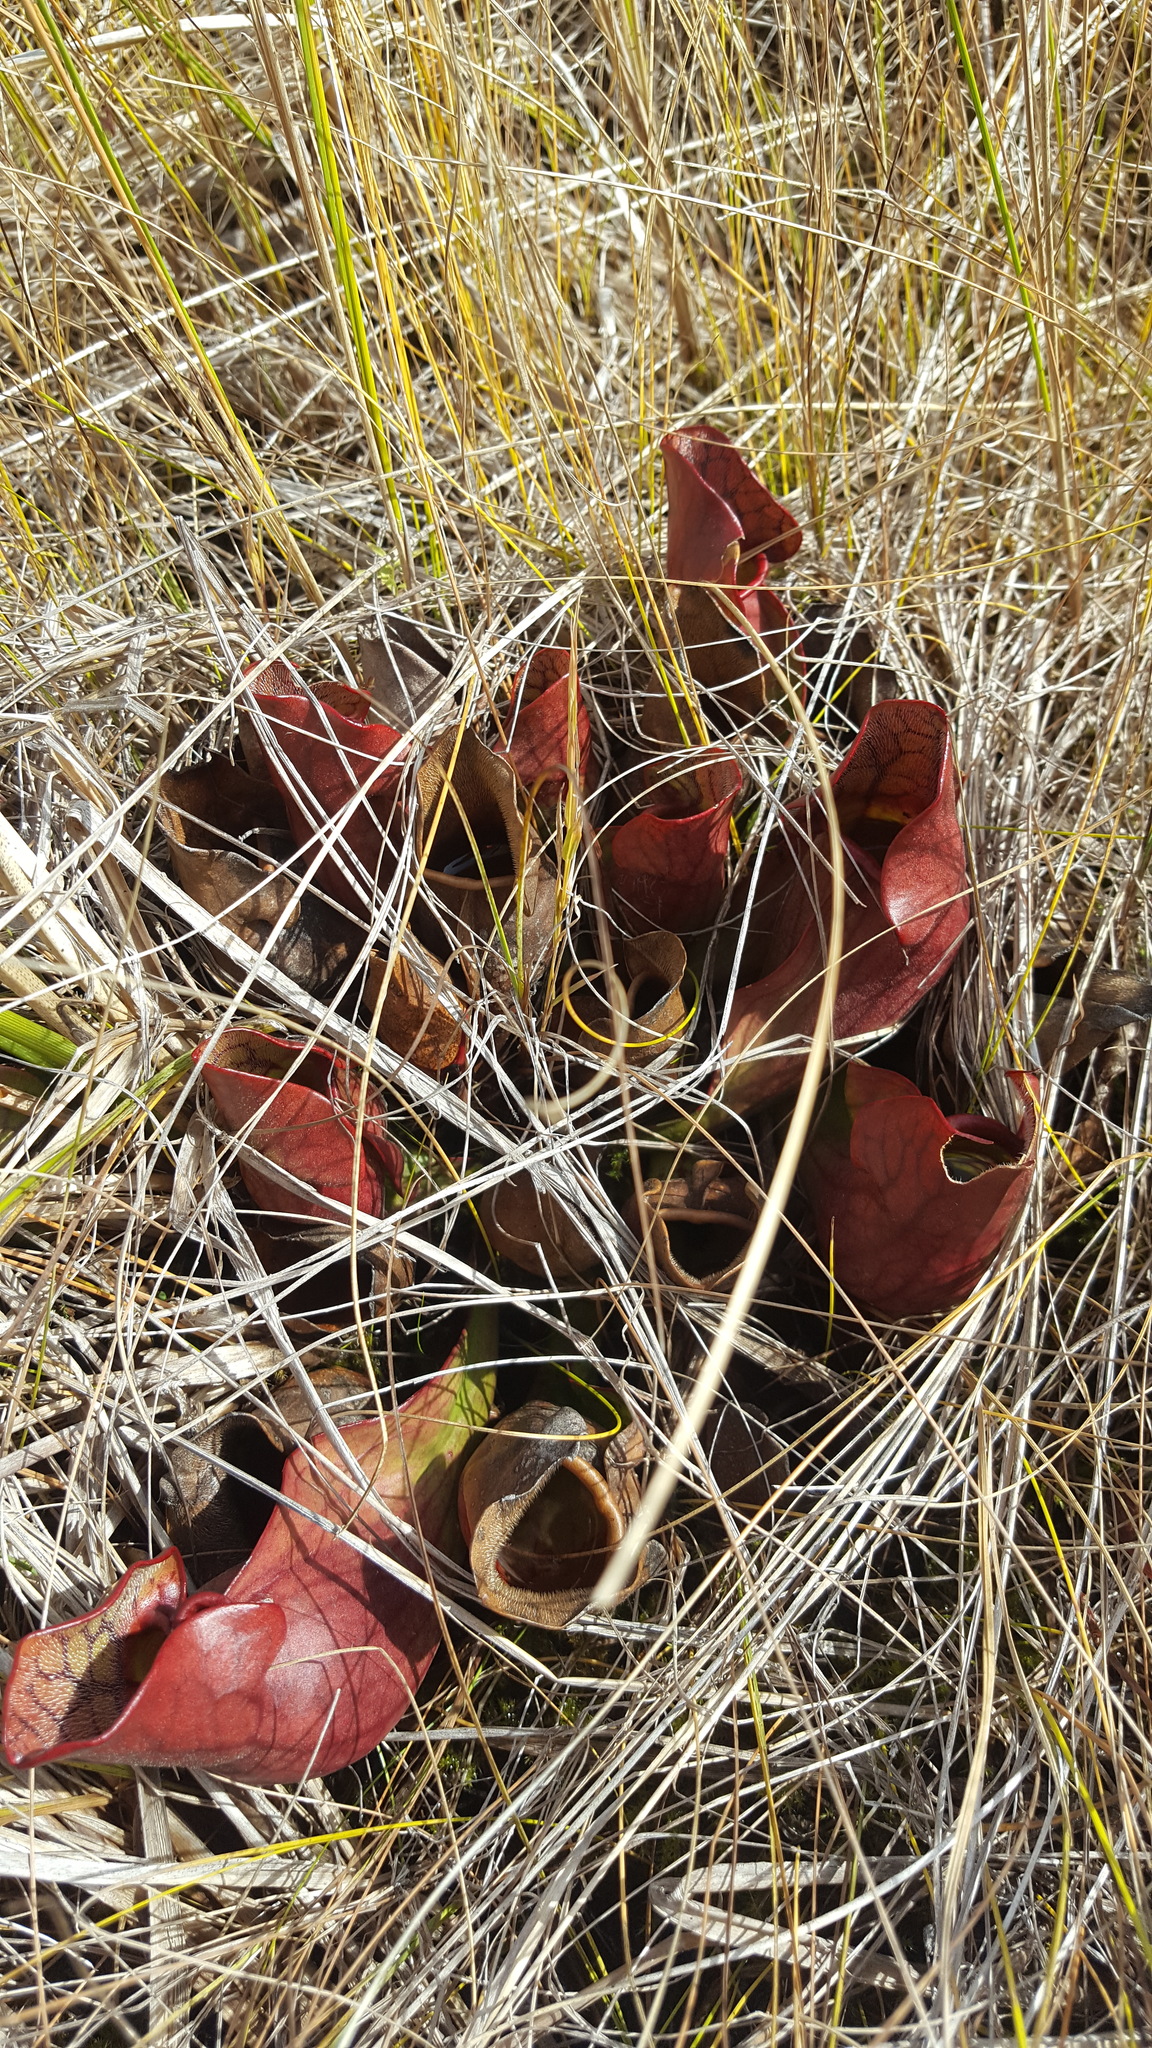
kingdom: Plantae
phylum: Tracheophyta
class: Magnoliopsida
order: Ericales
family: Sarraceniaceae
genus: Sarracenia
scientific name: Sarracenia purpurea
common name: Pitcherplant
